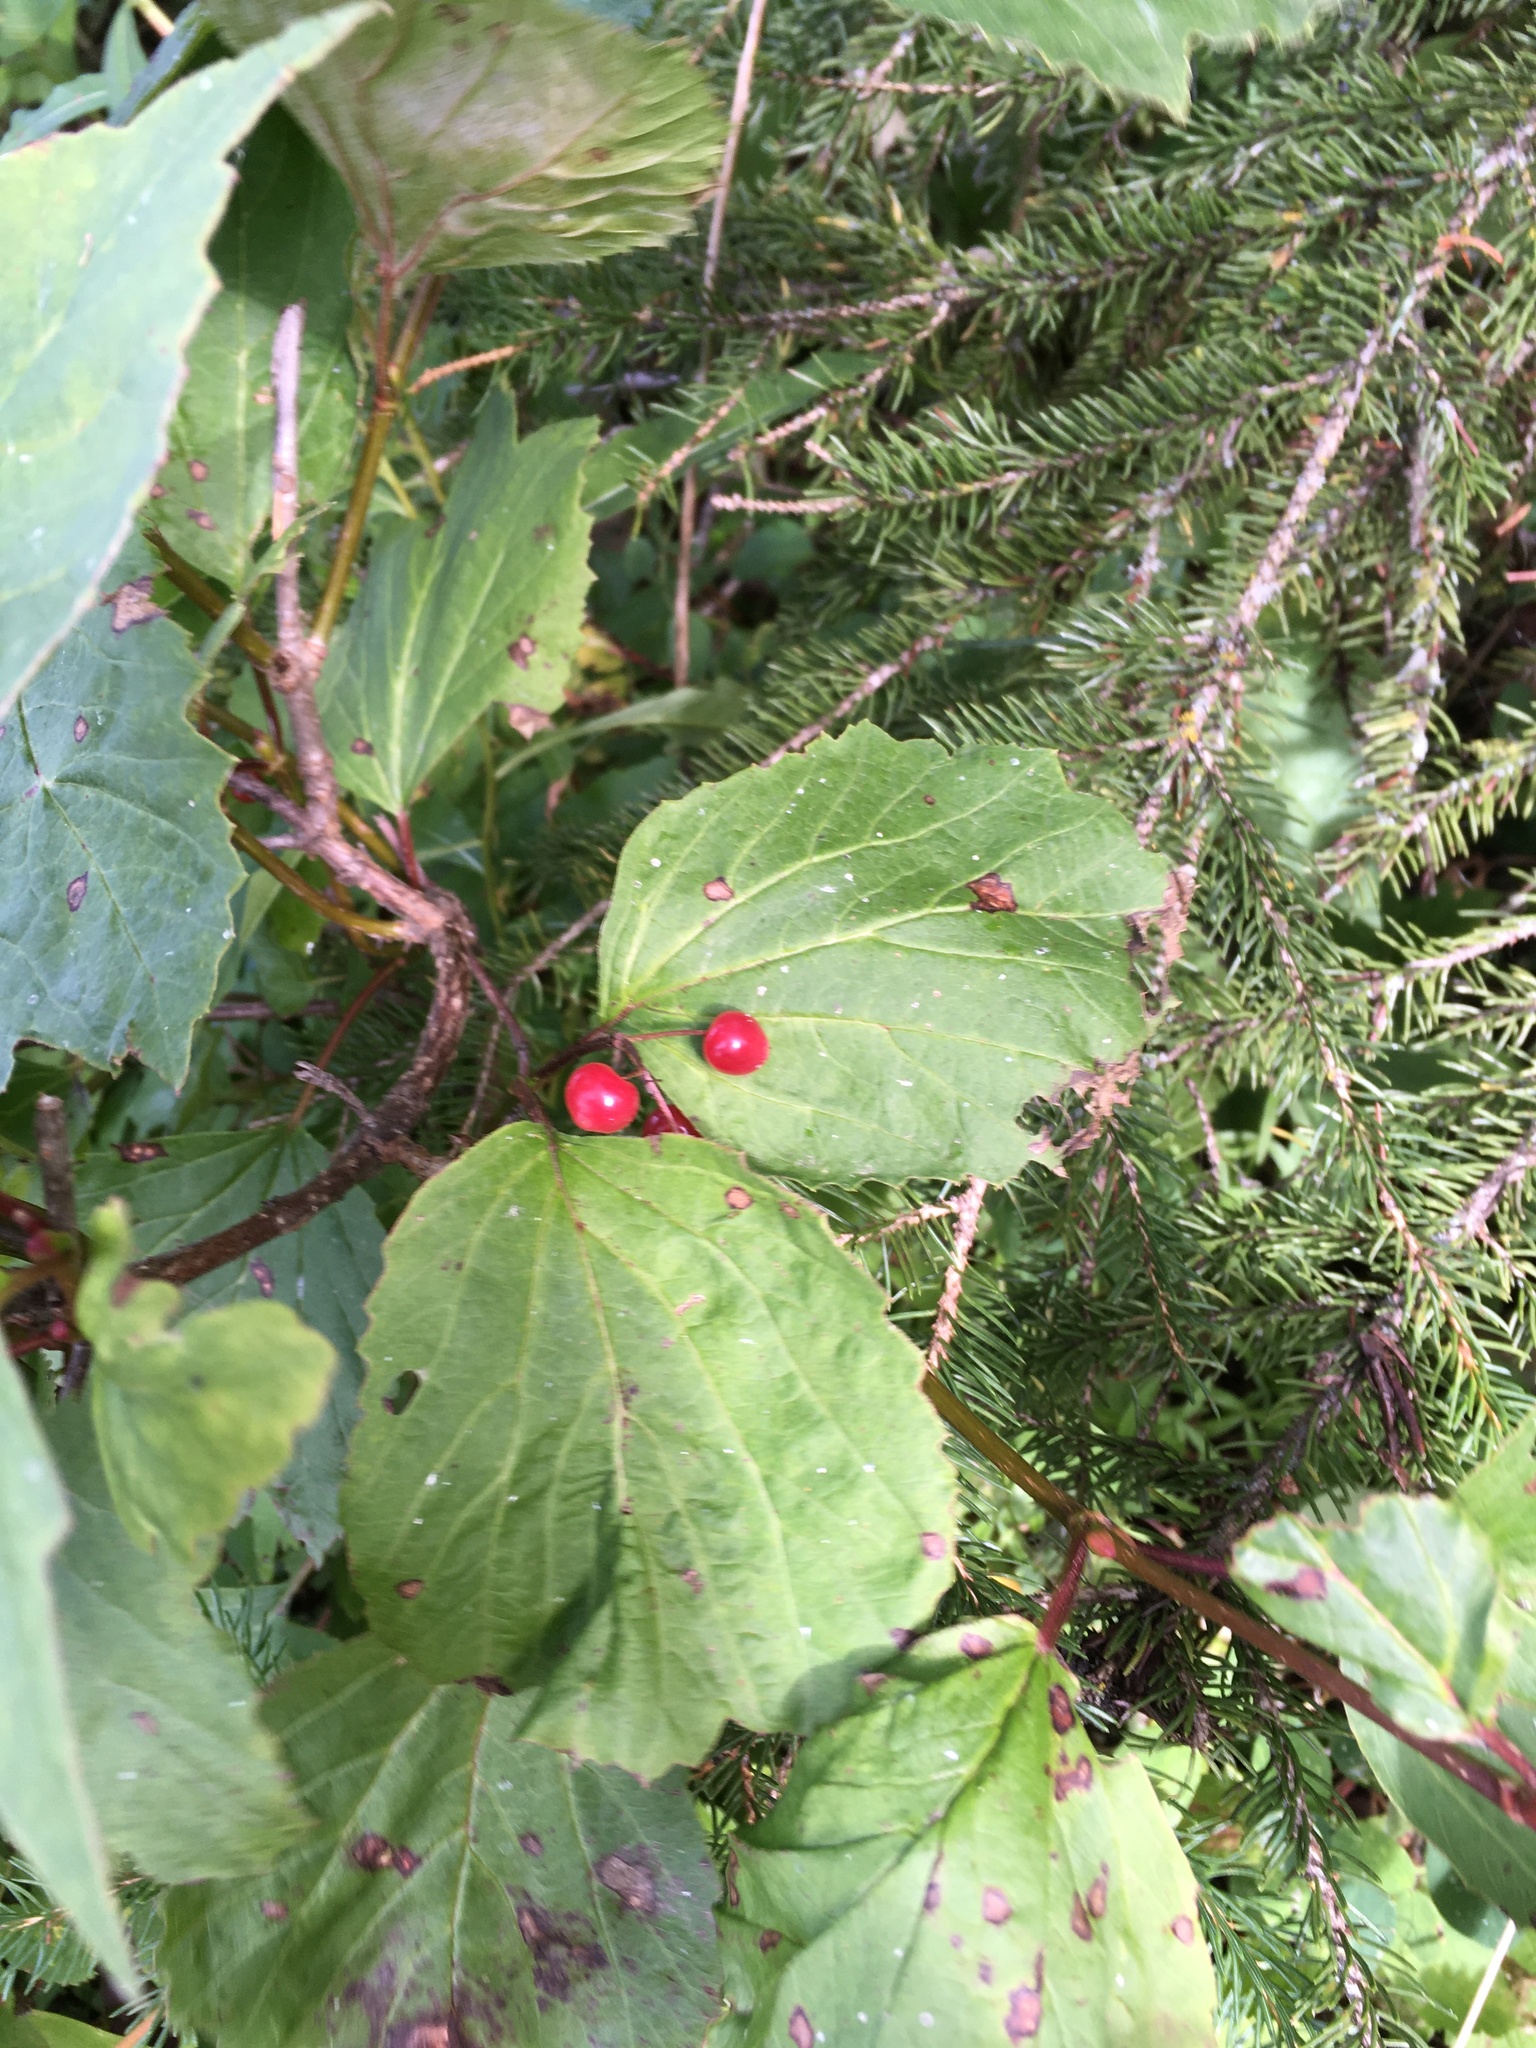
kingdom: Plantae
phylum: Tracheophyta
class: Magnoliopsida
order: Dipsacales
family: Viburnaceae
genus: Viburnum
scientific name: Viburnum edule
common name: Mooseberry
